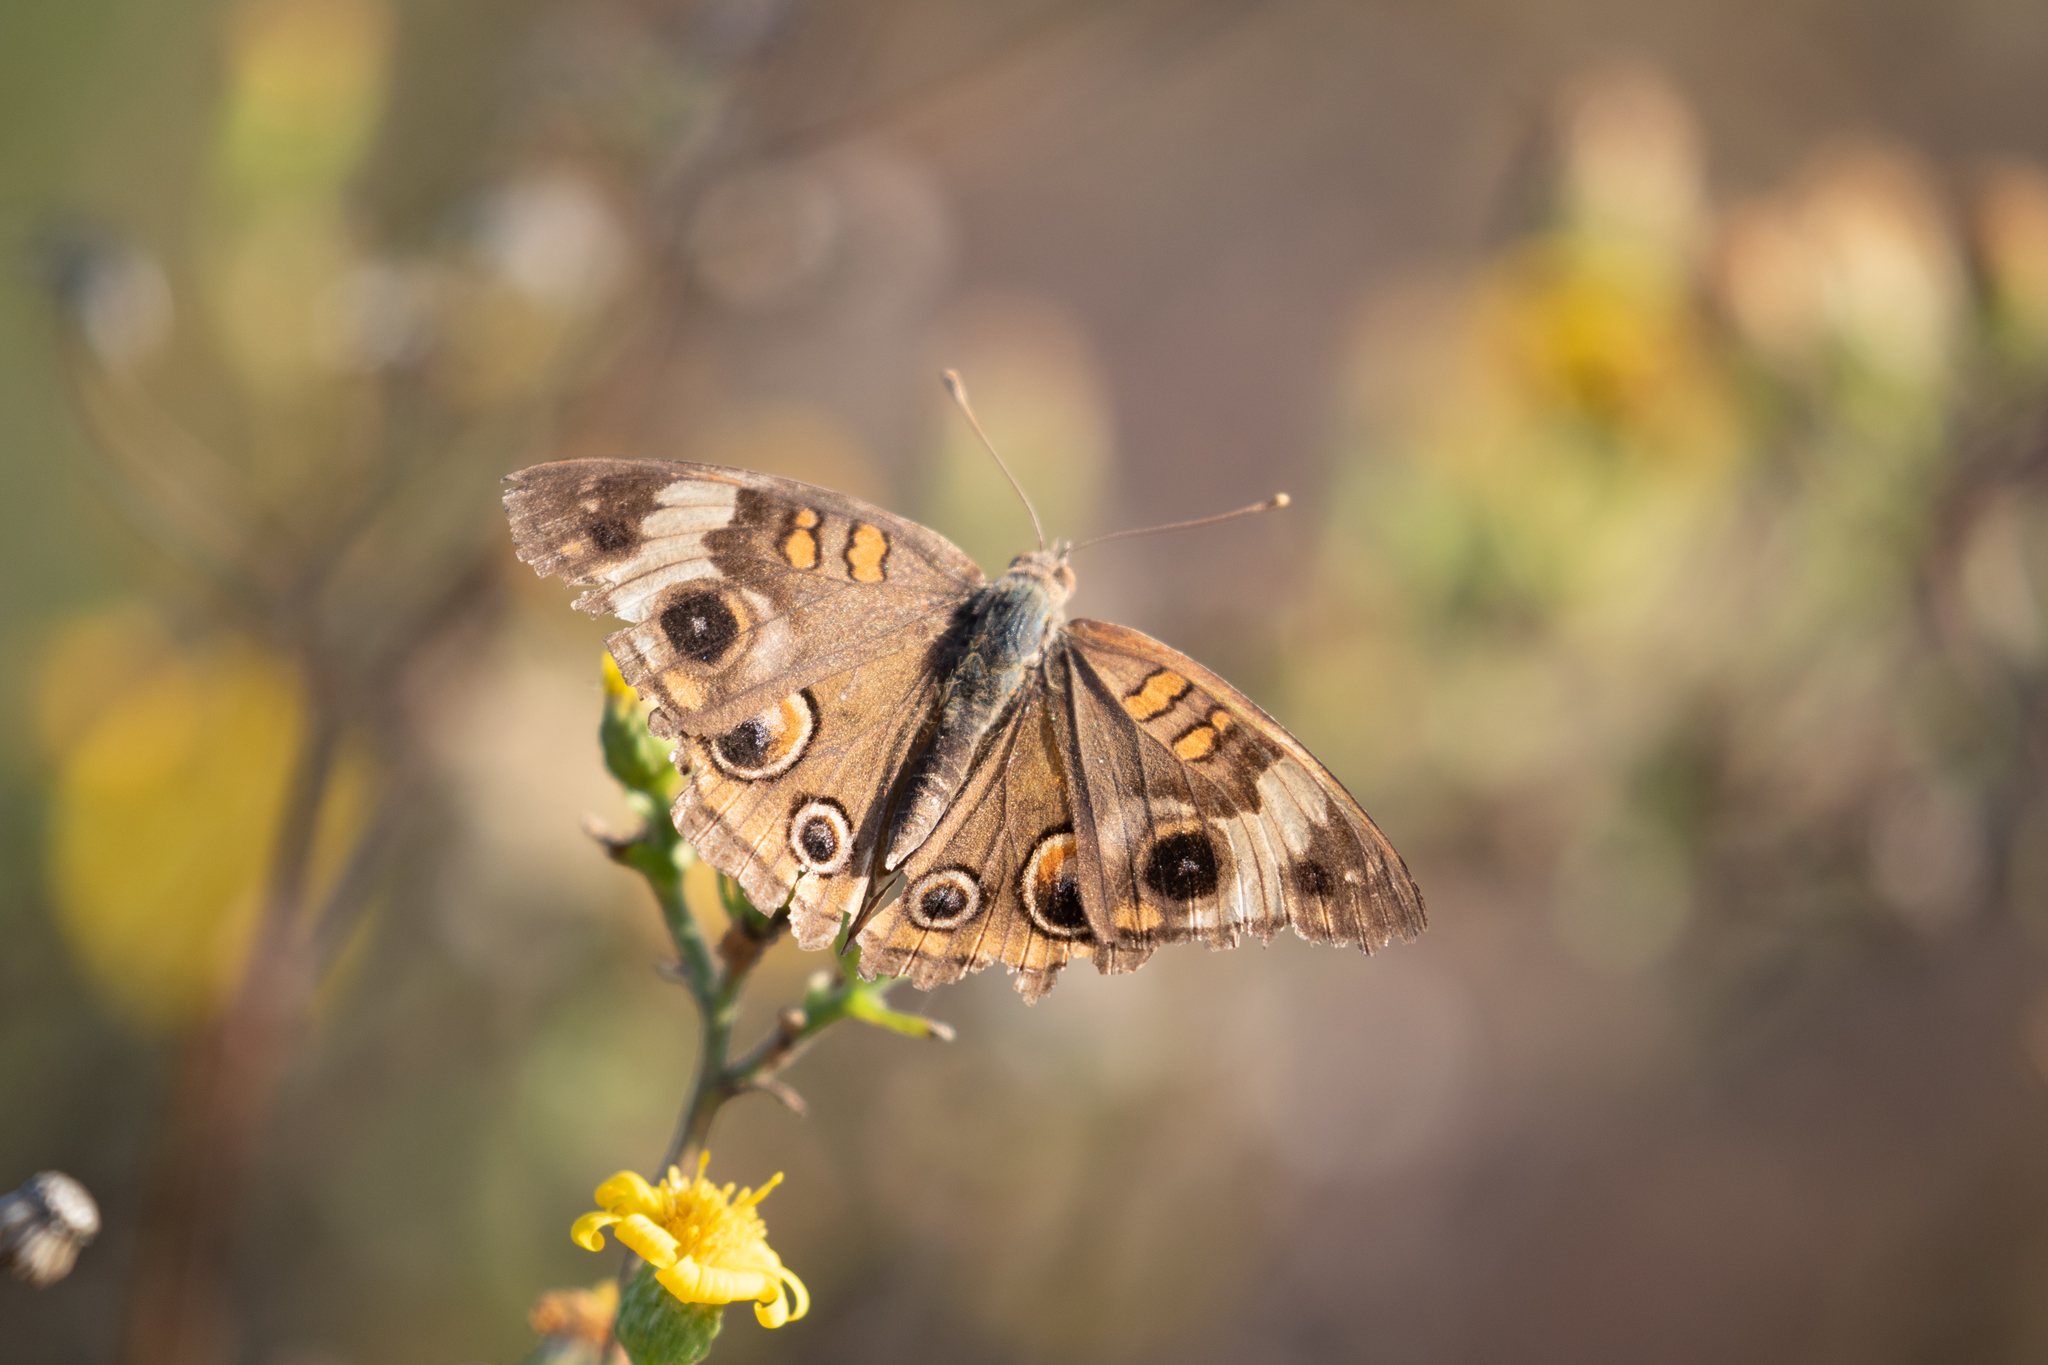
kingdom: Animalia
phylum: Arthropoda
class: Insecta
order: Lepidoptera
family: Nymphalidae
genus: Junonia
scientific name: Junonia coenia
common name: Common buckeye
